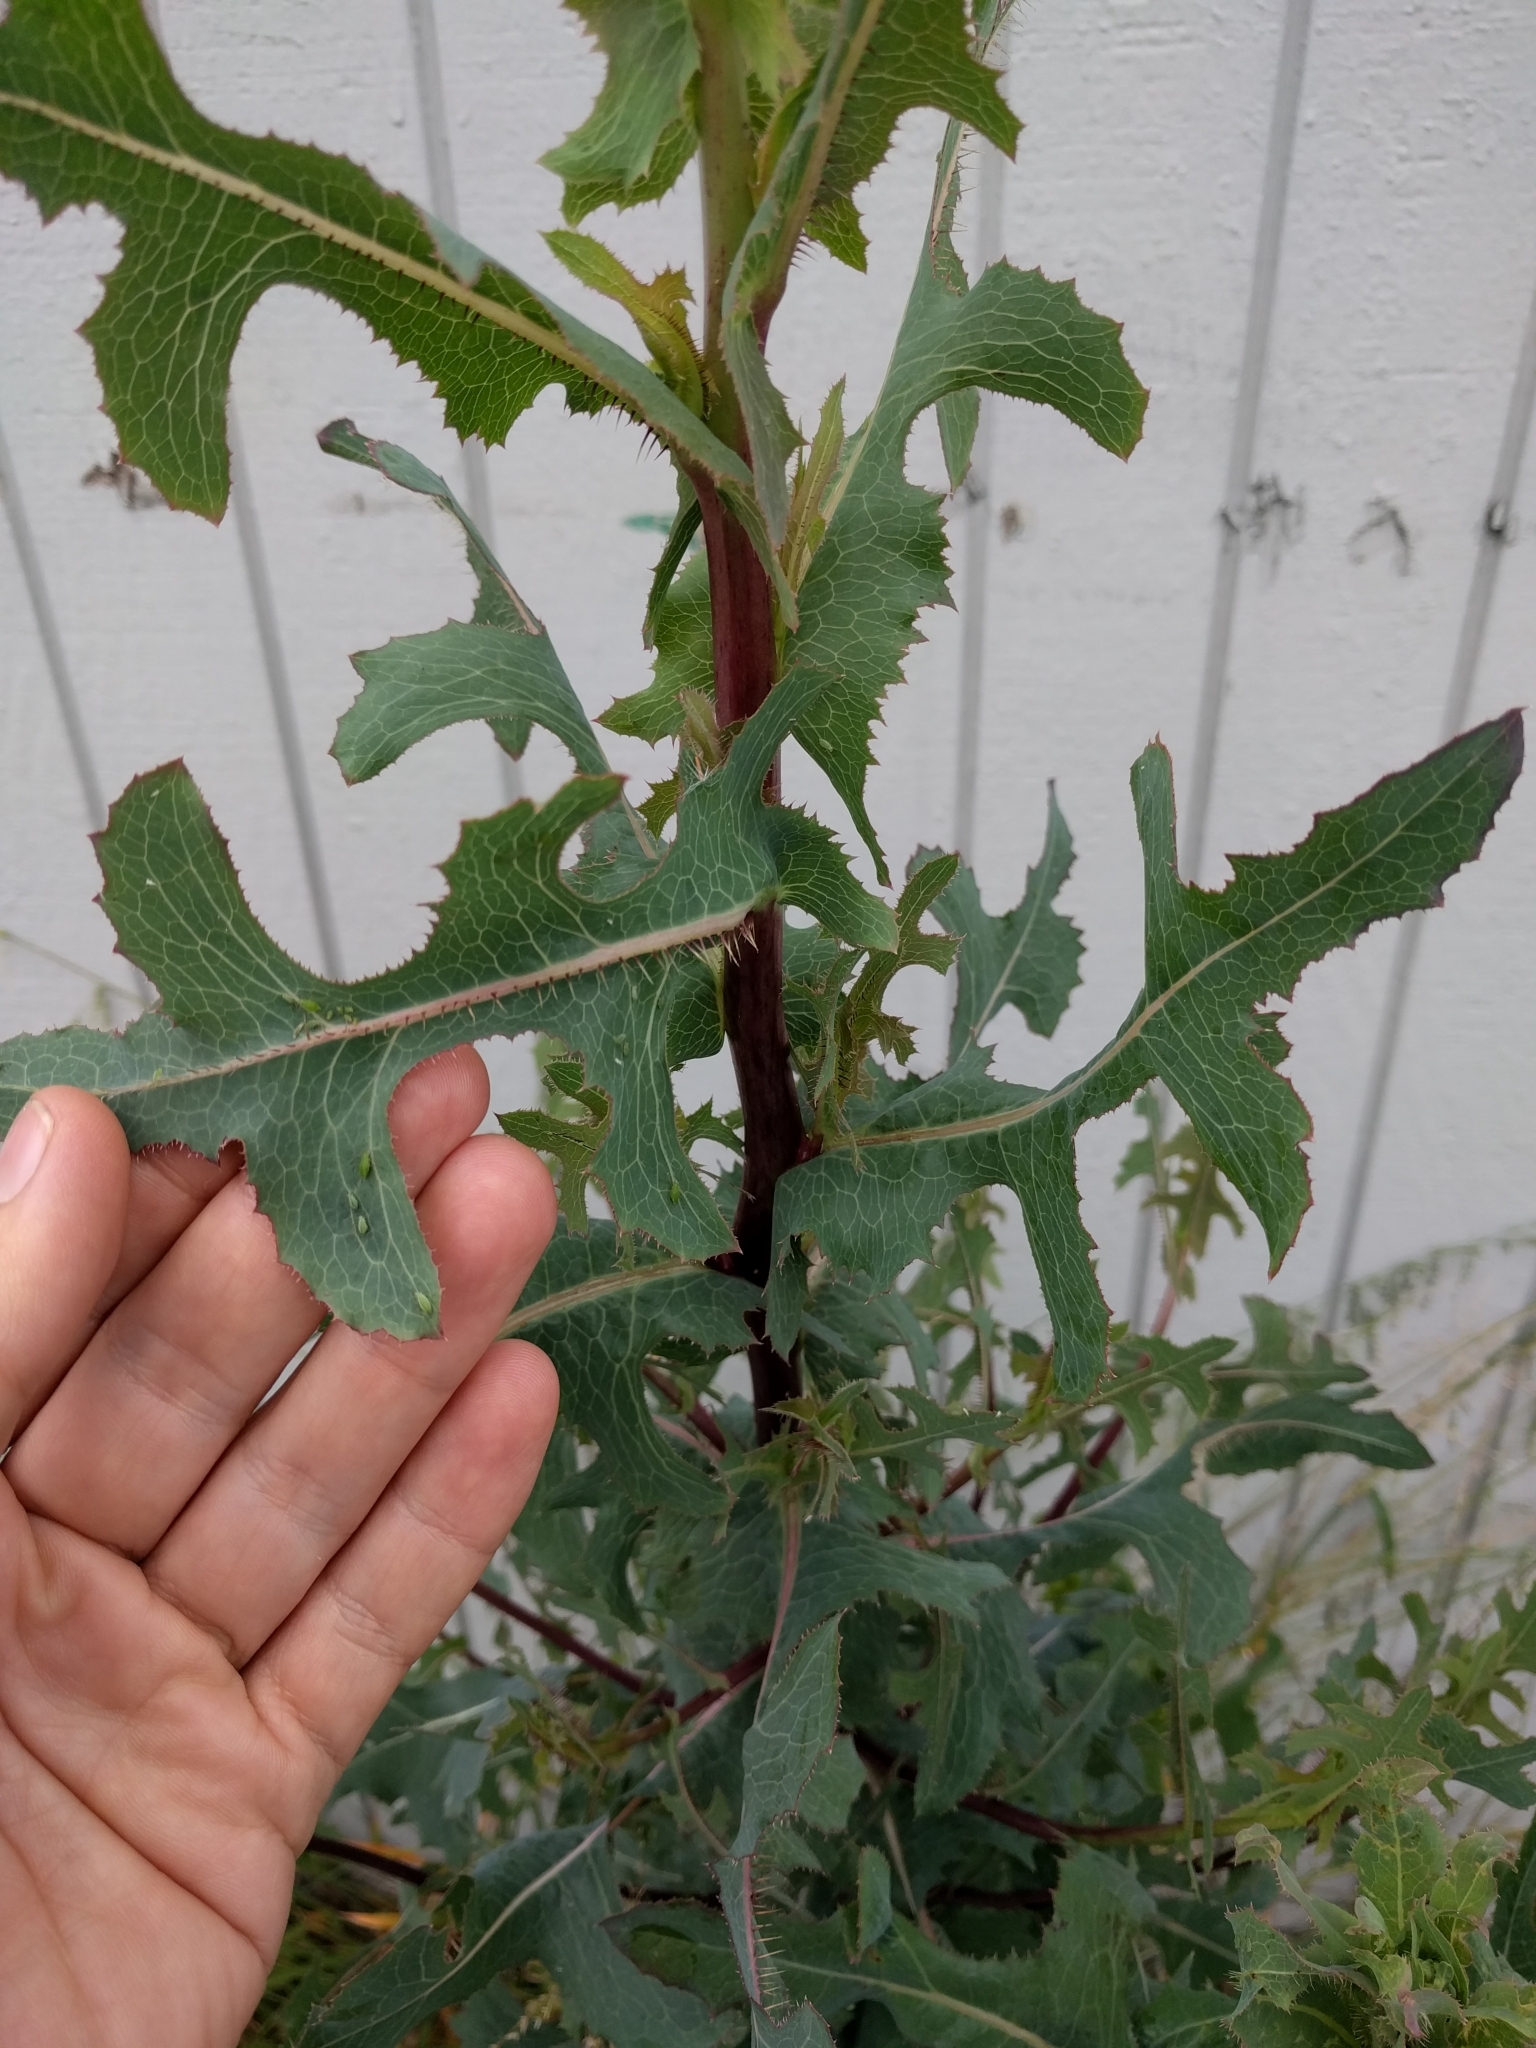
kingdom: Plantae
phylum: Tracheophyta
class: Magnoliopsida
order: Asterales
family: Asteraceae
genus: Lactuca
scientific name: Lactuca serriola
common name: Prickly lettuce
